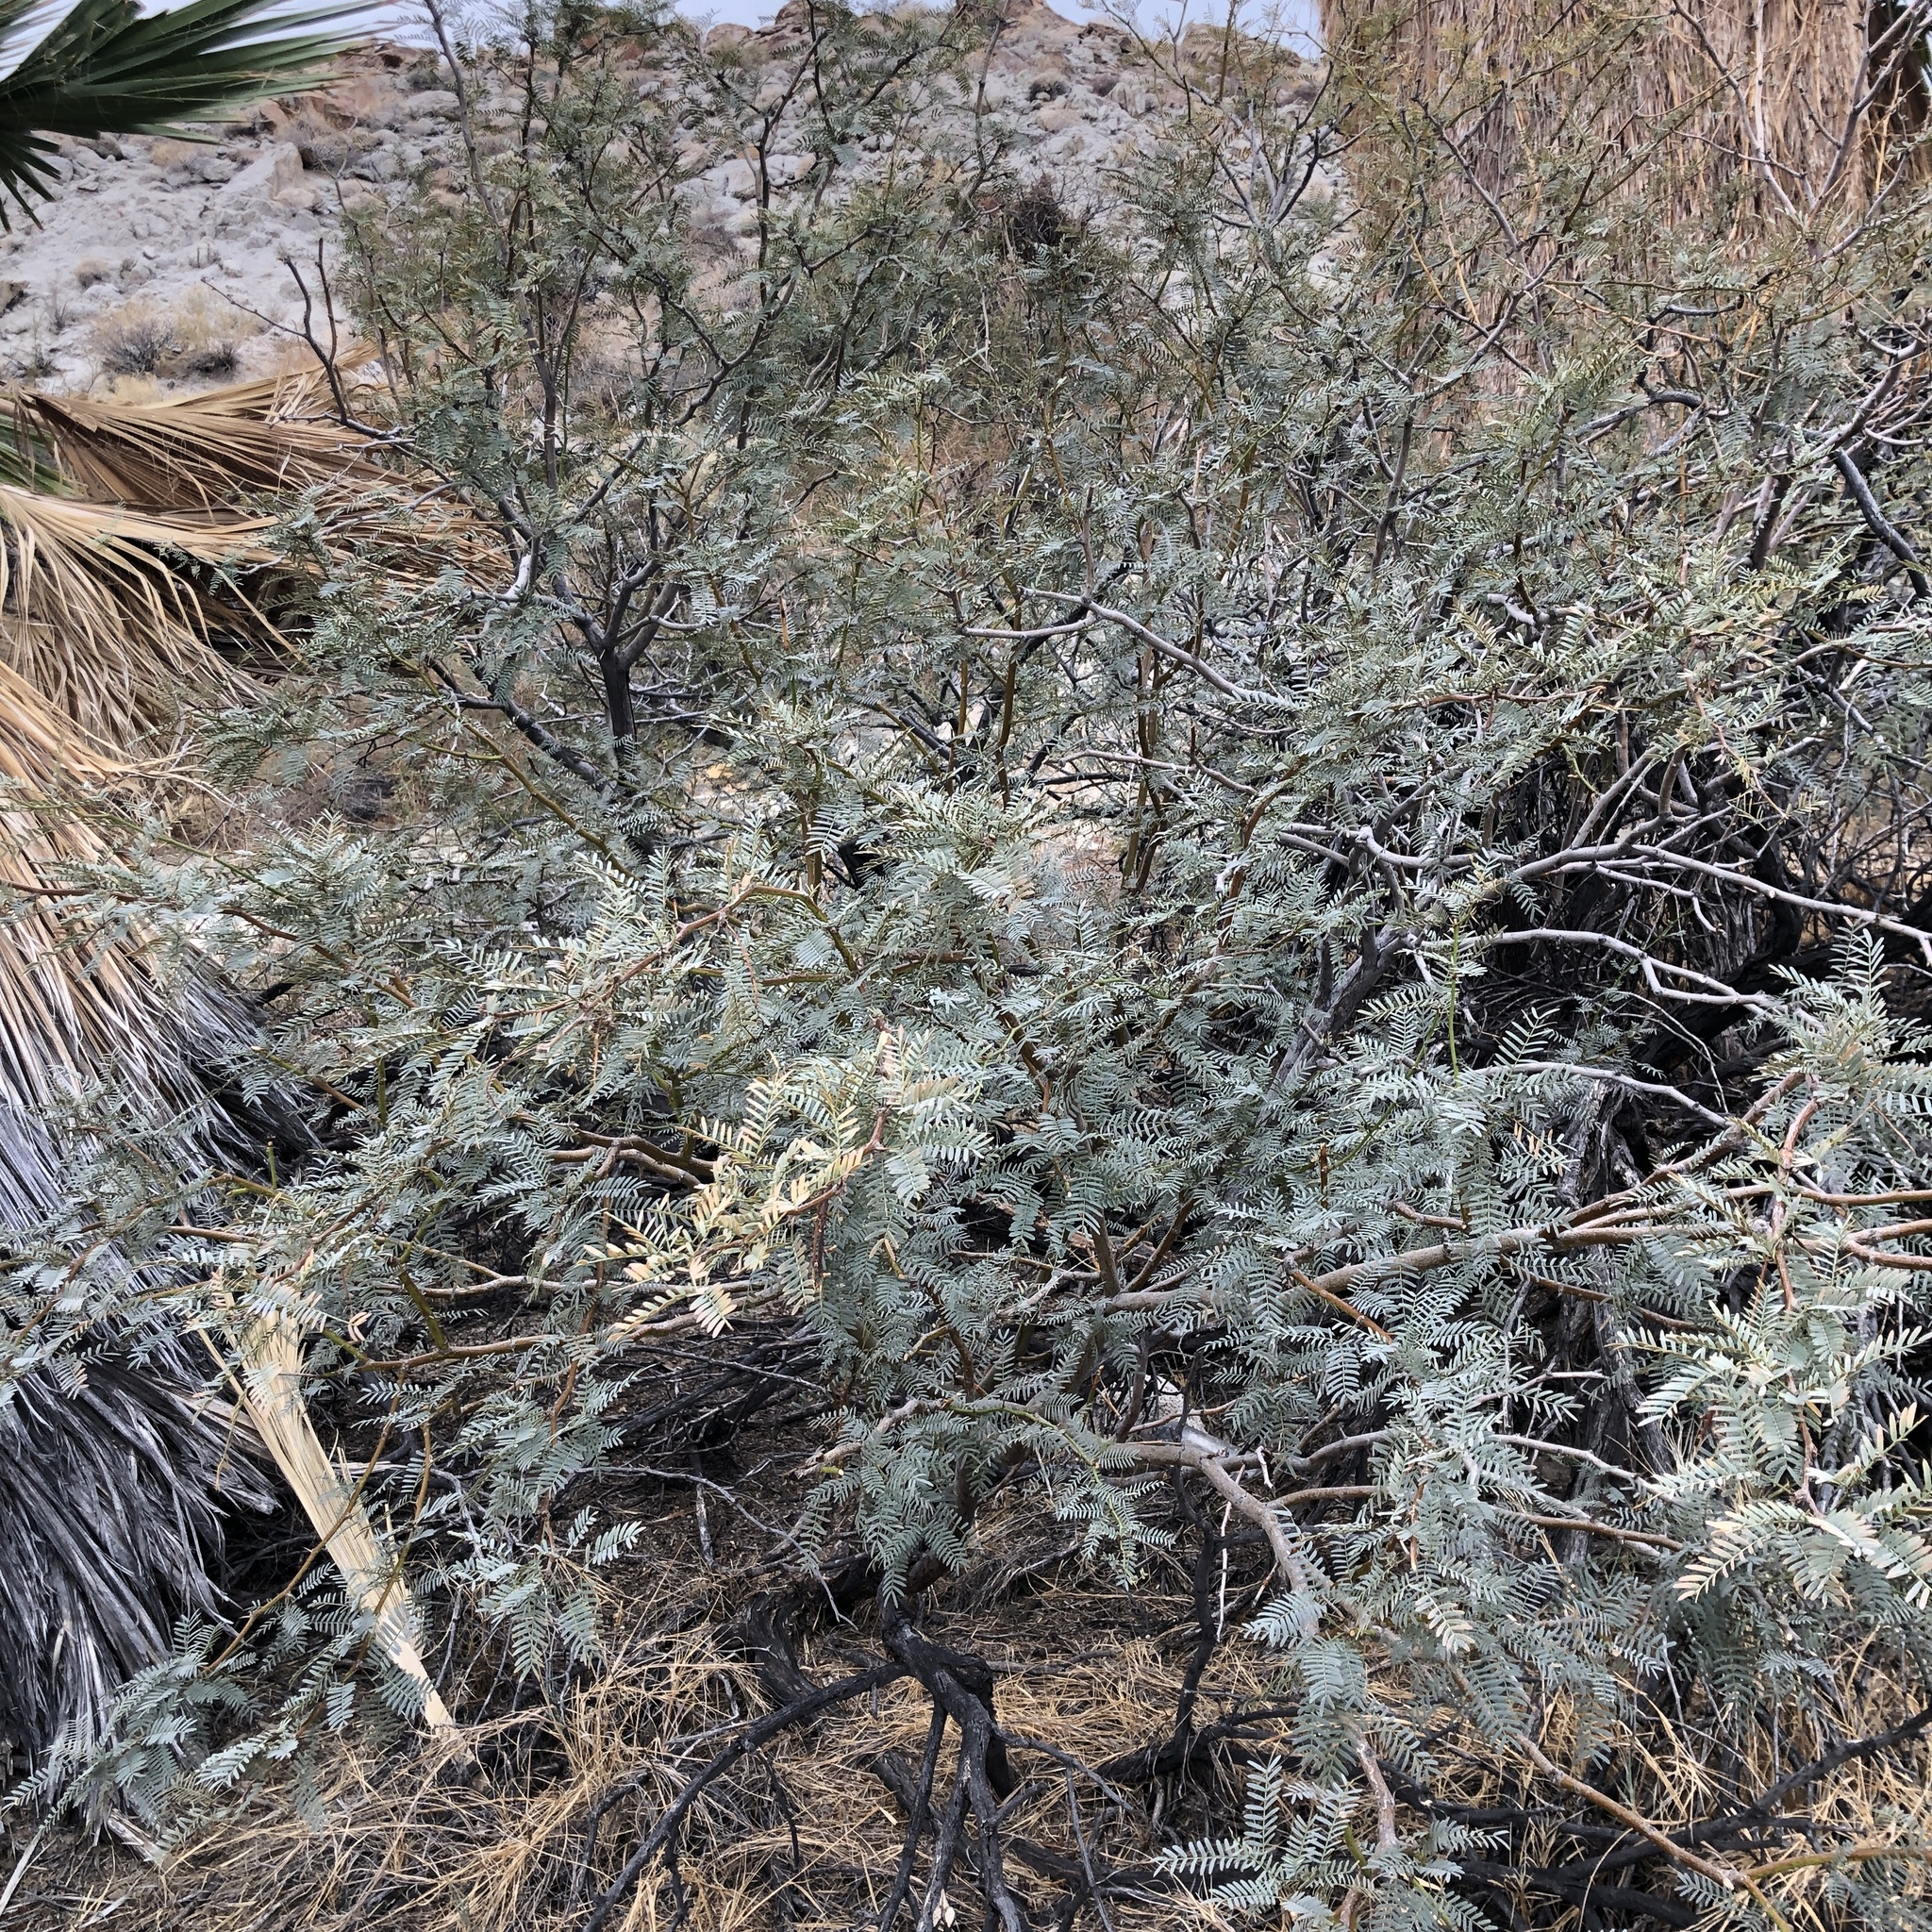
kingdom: Plantae
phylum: Tracheophyta
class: Magnoliopsida
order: Fabales
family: Fabaceae
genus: Prosopis
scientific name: Prosopis pubescens
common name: Screw-bean
